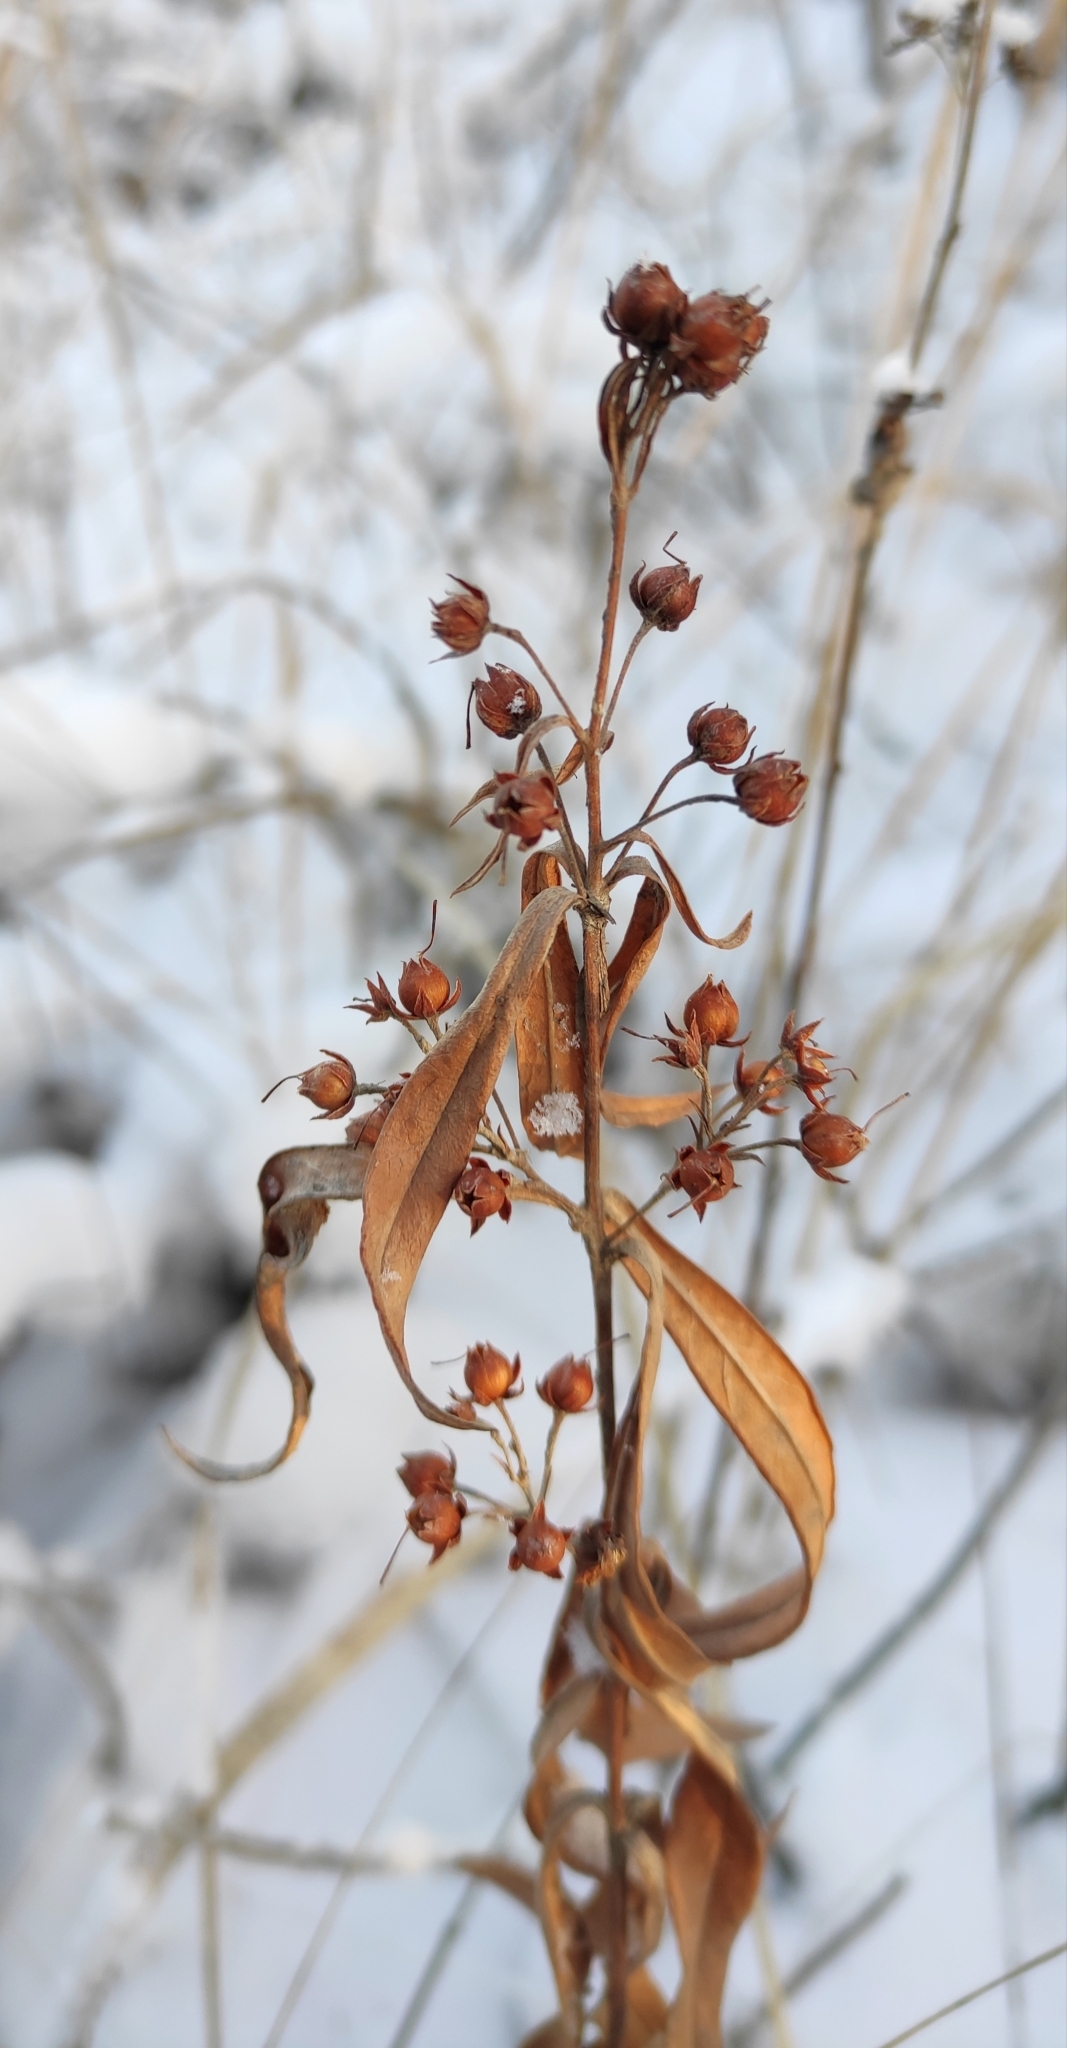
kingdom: Plantae
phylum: Tracheophyta
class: Magnoliopsida
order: Ericales
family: Primulaceae
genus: Lysimachia
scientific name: Lysimachia davurica
